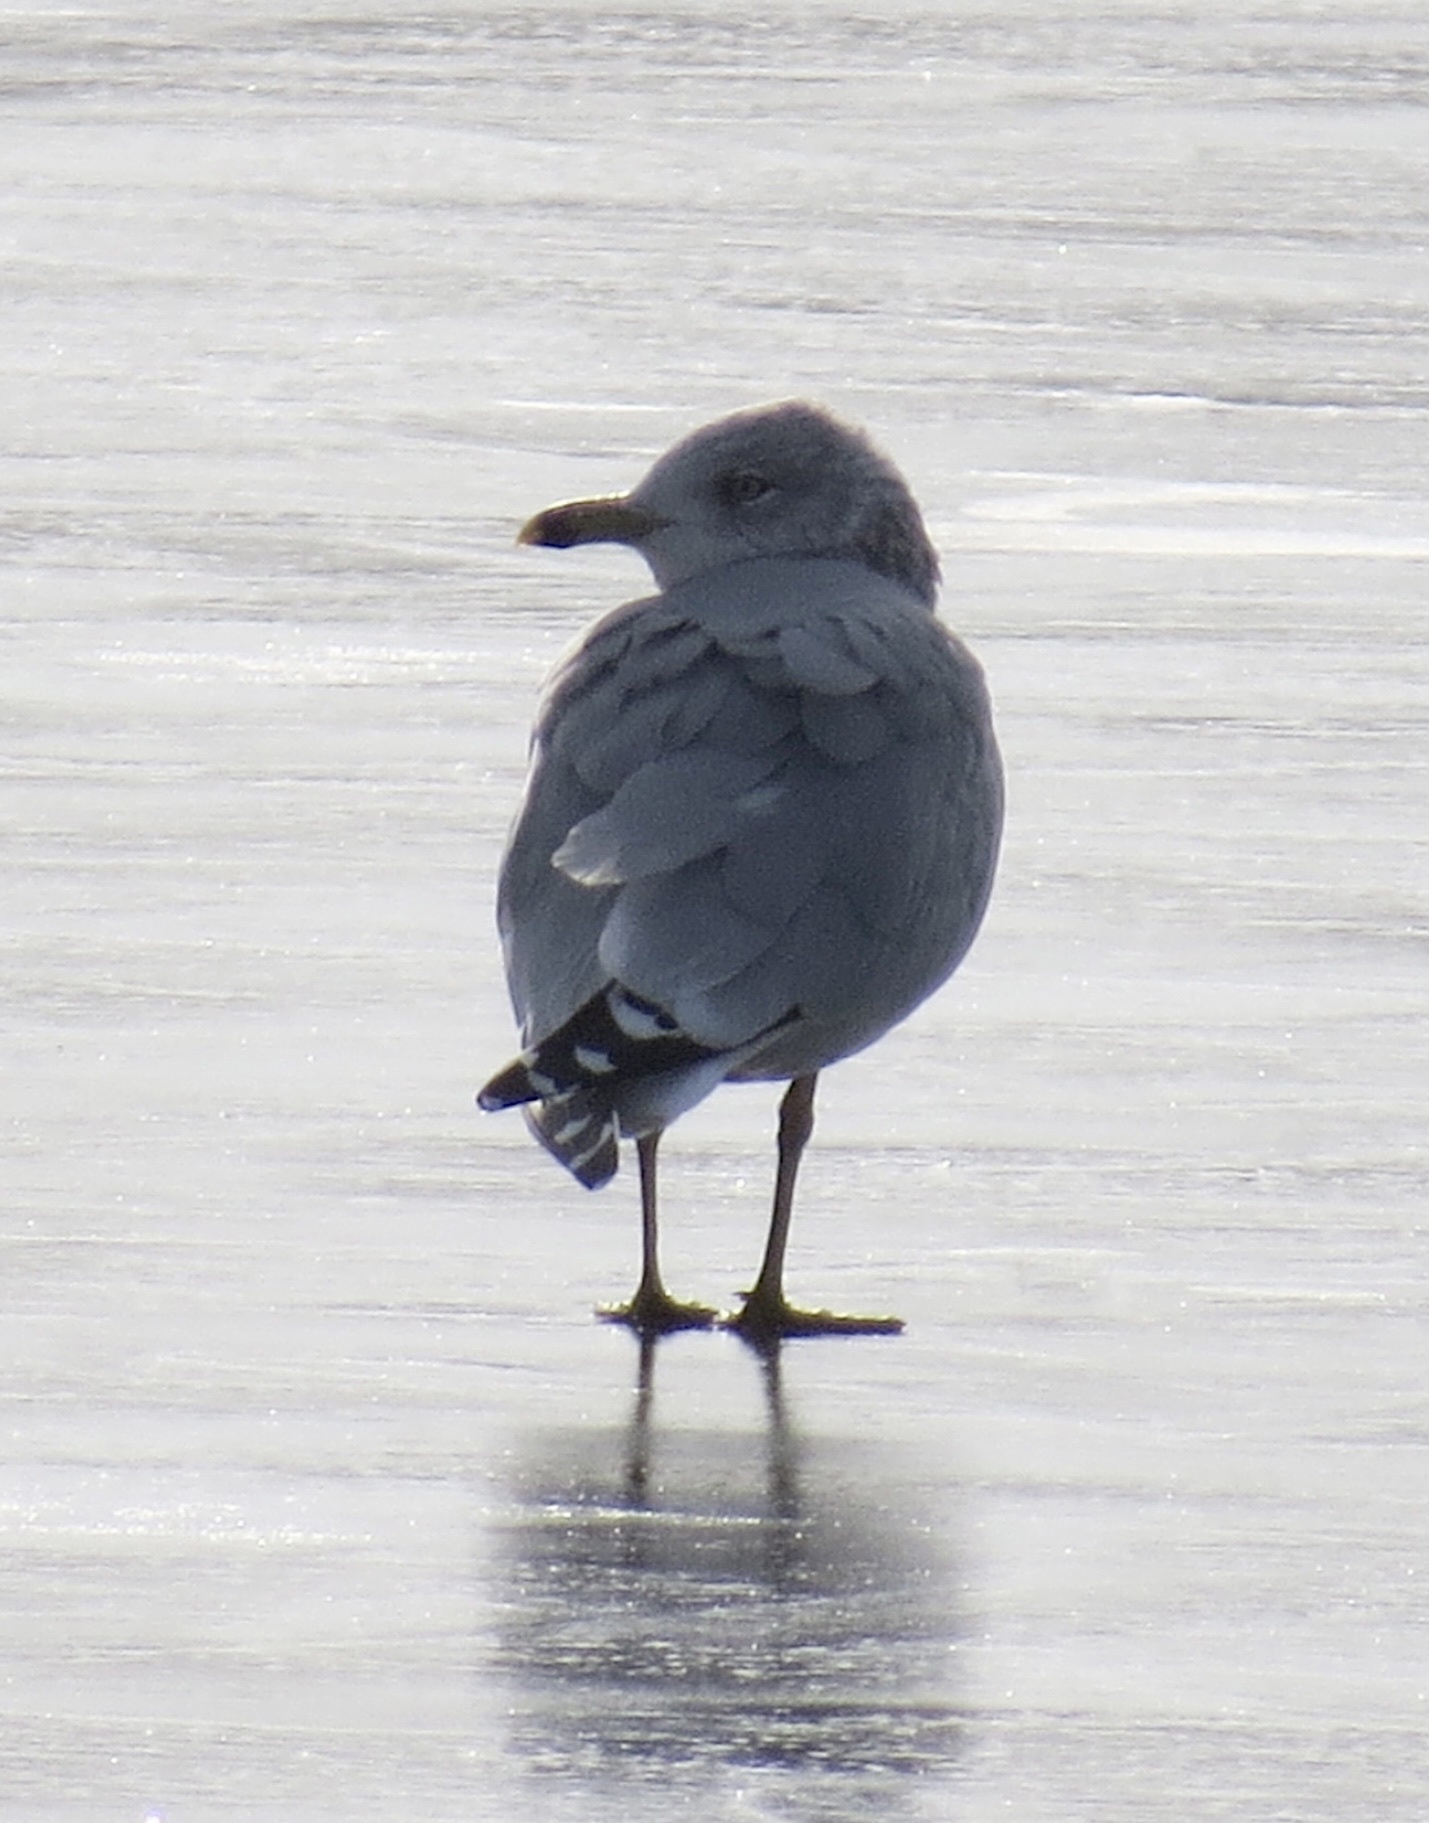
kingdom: Animalia
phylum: Chordata
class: Aves
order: Charadriiformes
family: Laridae
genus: Larus
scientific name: Larus delawarensis
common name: Ring-billed gull
